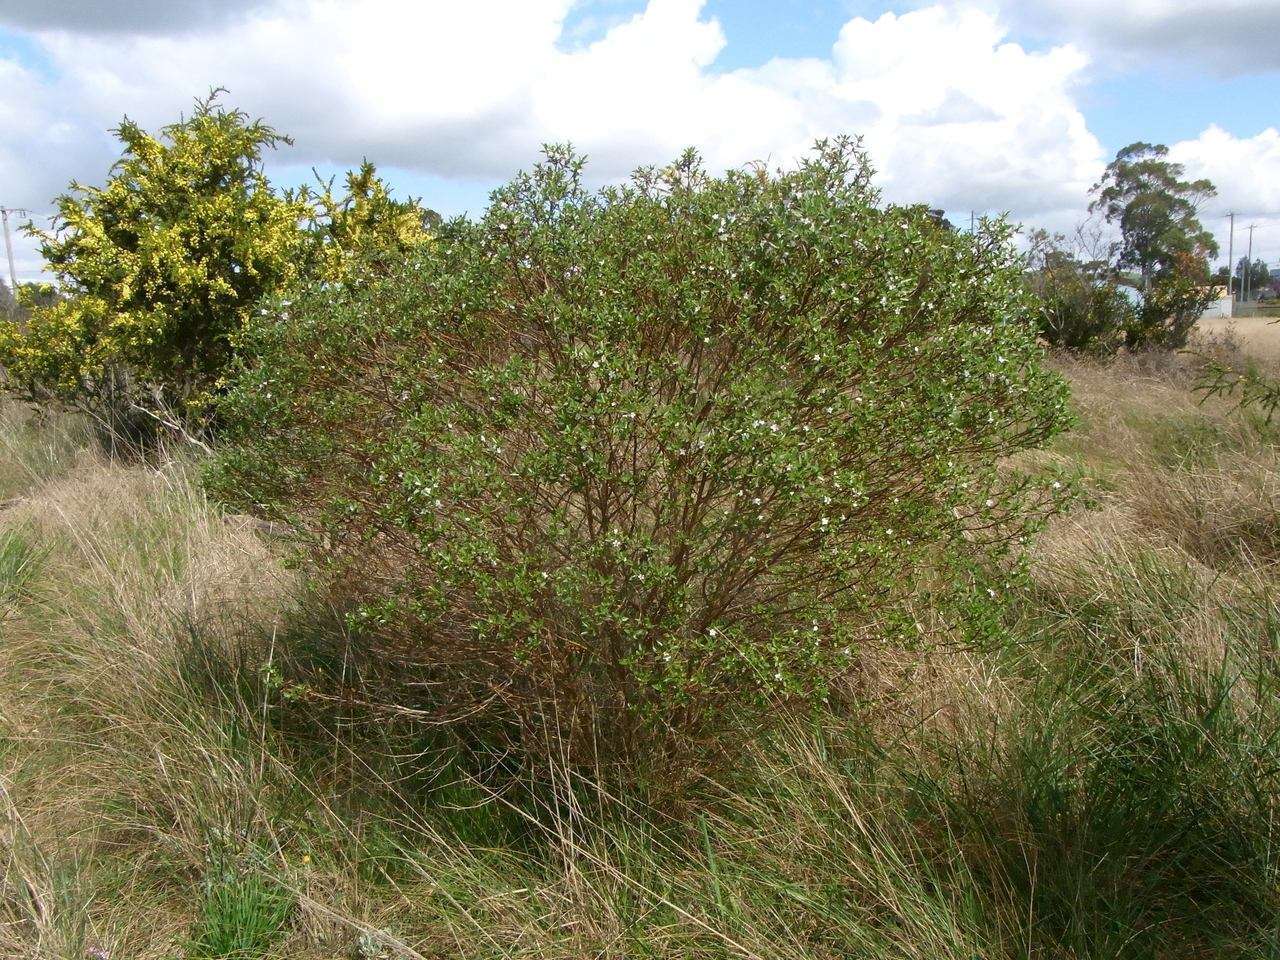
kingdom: Plantae
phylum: Tracheophyta
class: Magnoliopsida
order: Lamiales
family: Scrophulariaceae
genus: Myoporum
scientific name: Myoporum petiolatum
